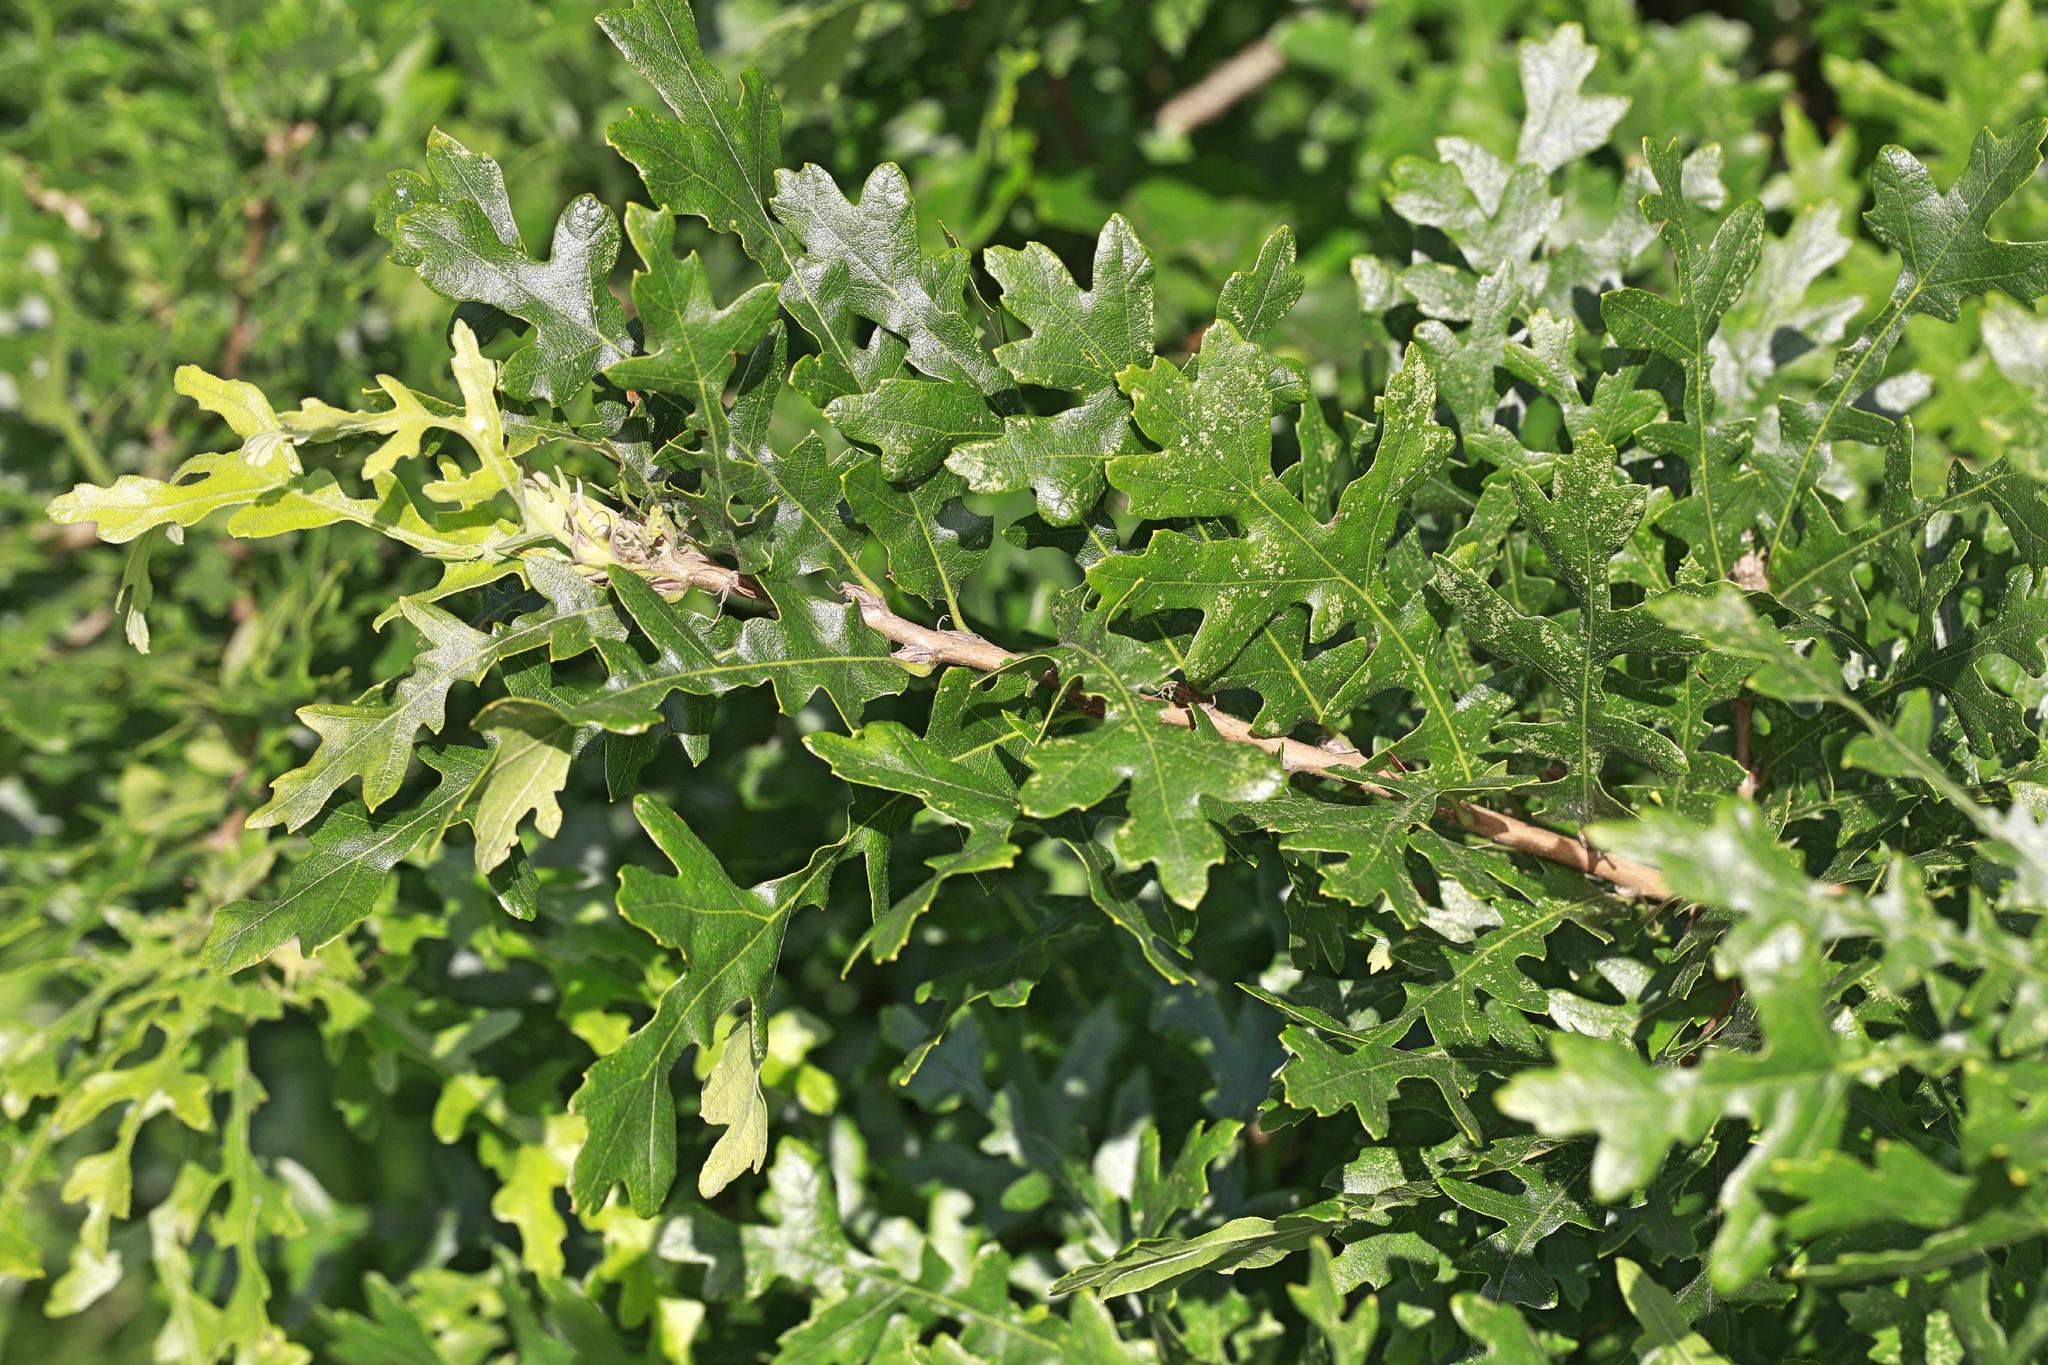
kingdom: Plantae
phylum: Tracheophyta
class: Magnoliopsida
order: Fagales
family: Fagaceae
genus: Quercus
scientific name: Quercus cerris
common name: Turkey oak
